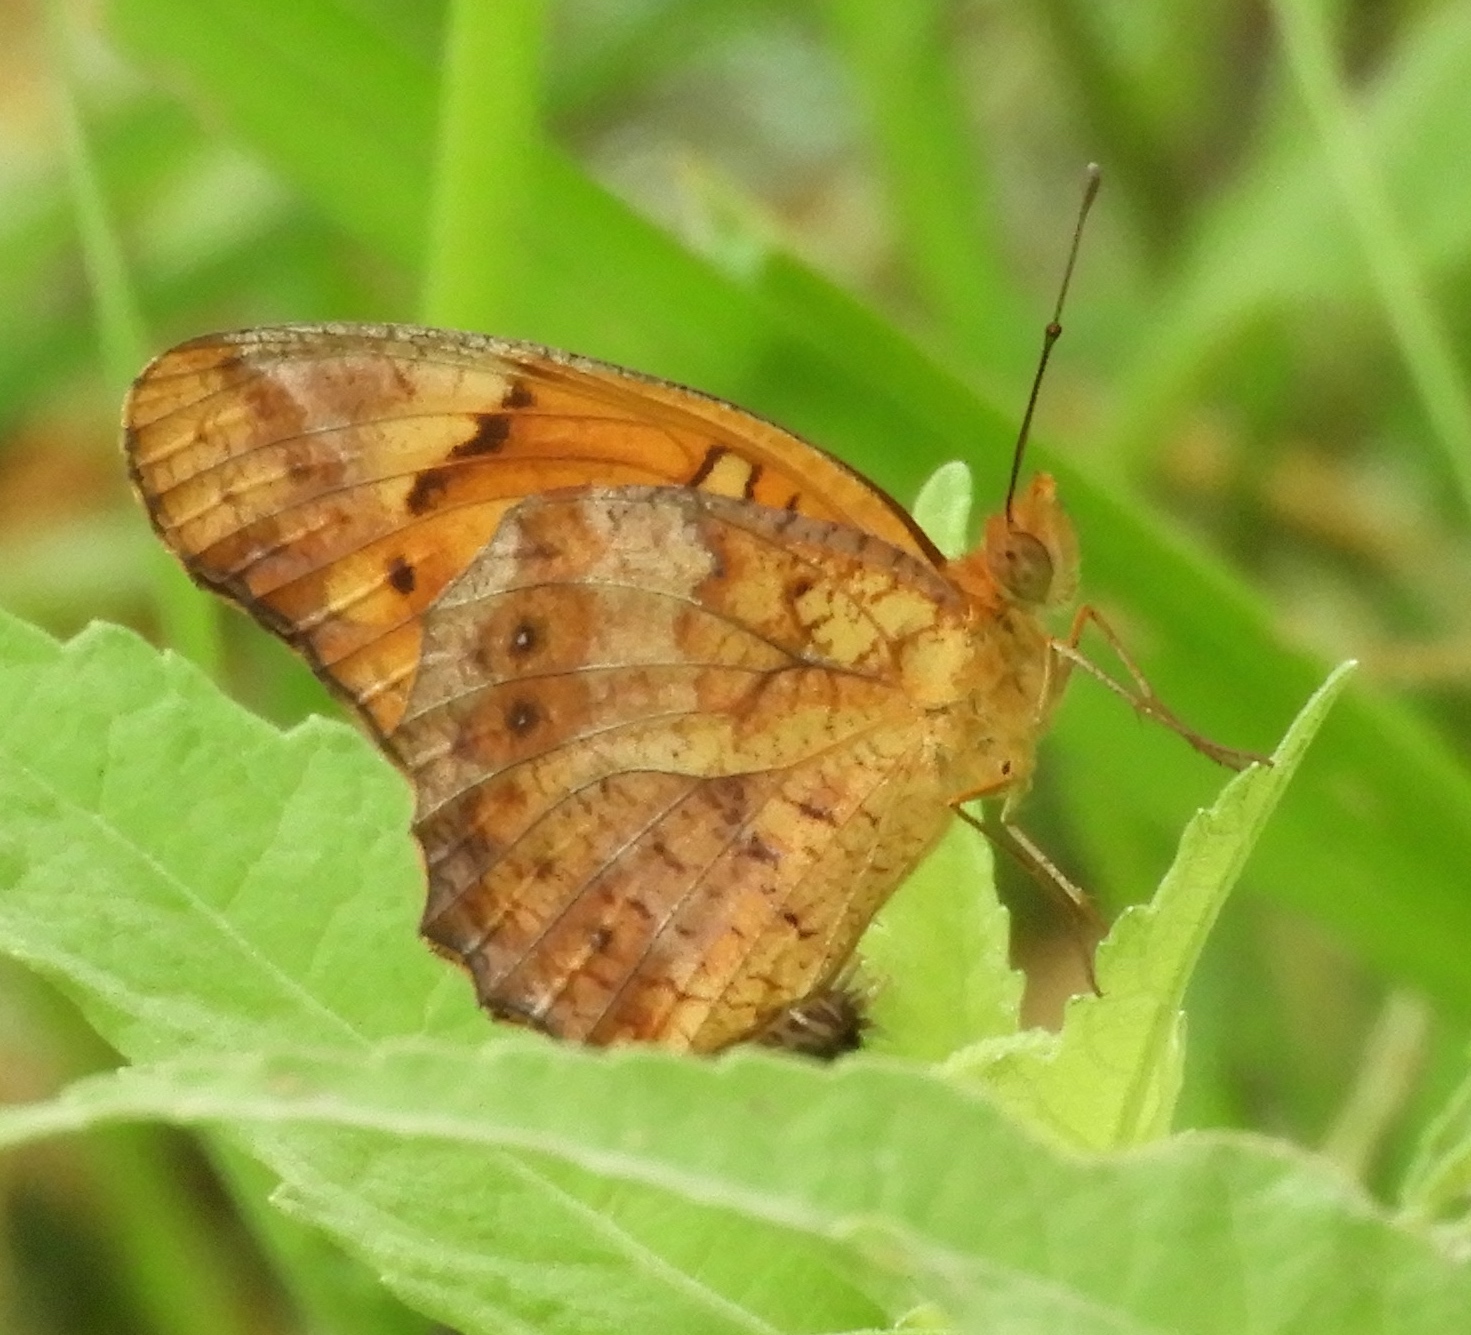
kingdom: Animalia
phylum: Arthropoda
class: Insecta
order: Lepidoptera
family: Nymphalidae
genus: Euptoieta
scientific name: Euptoieta hegesia
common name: Mexican fritillary
